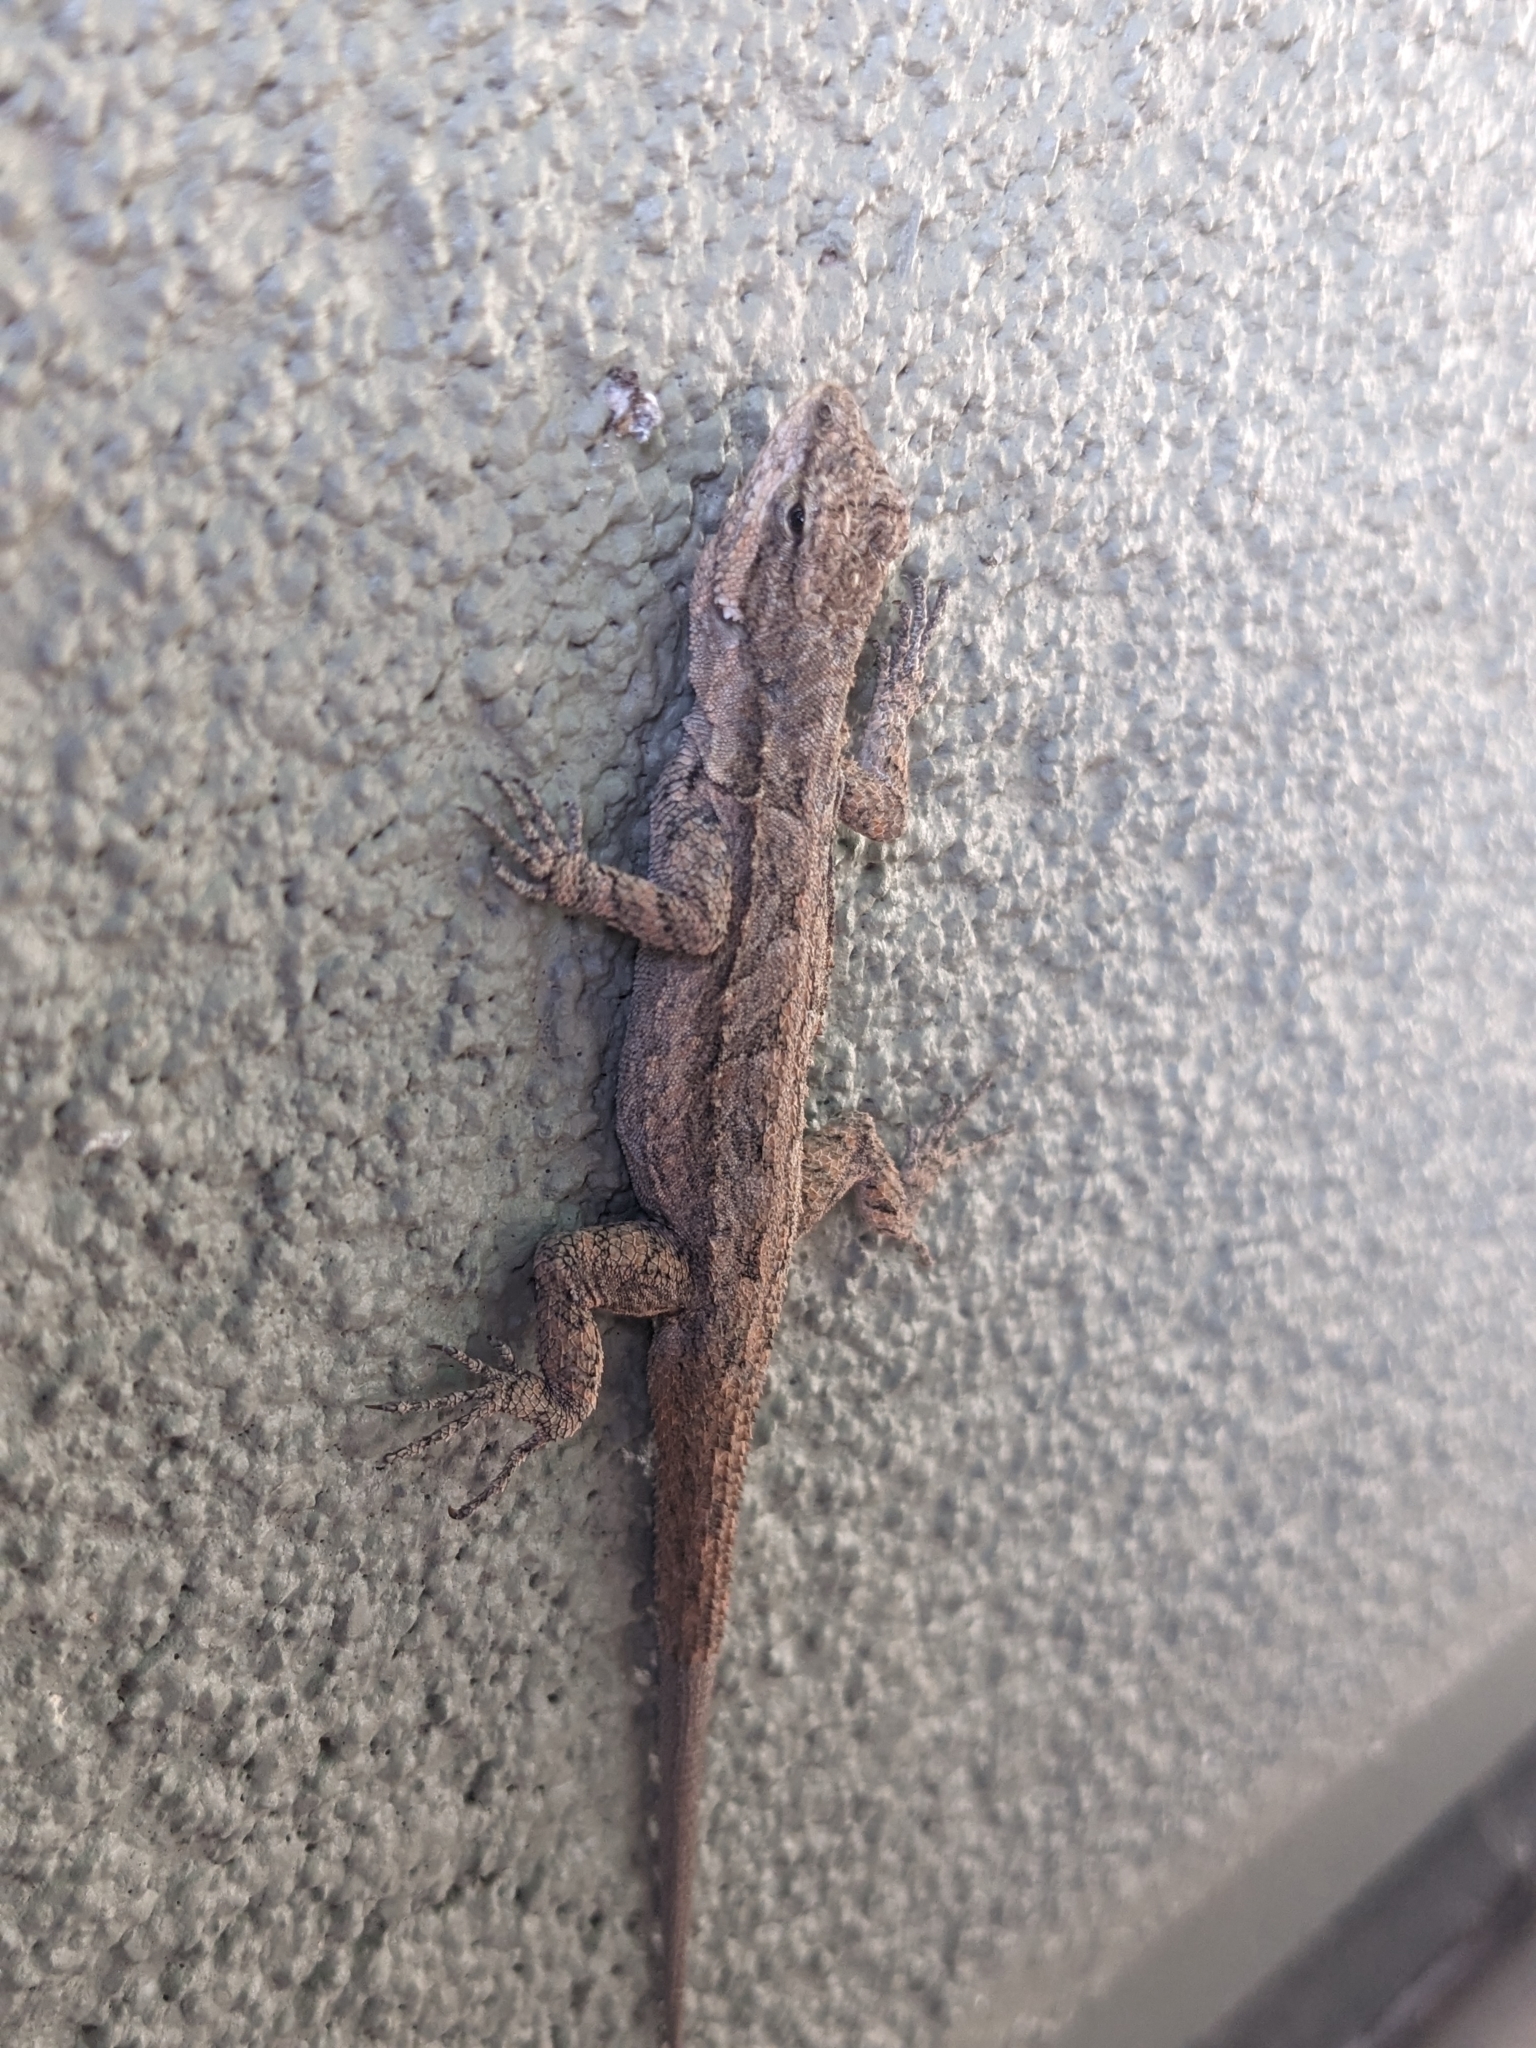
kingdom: Animalia
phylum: Chordata
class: Squamata
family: Phrynosomatidae
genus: Urosaurus
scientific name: Urosaurus ornatus
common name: Ornate tree lizard
